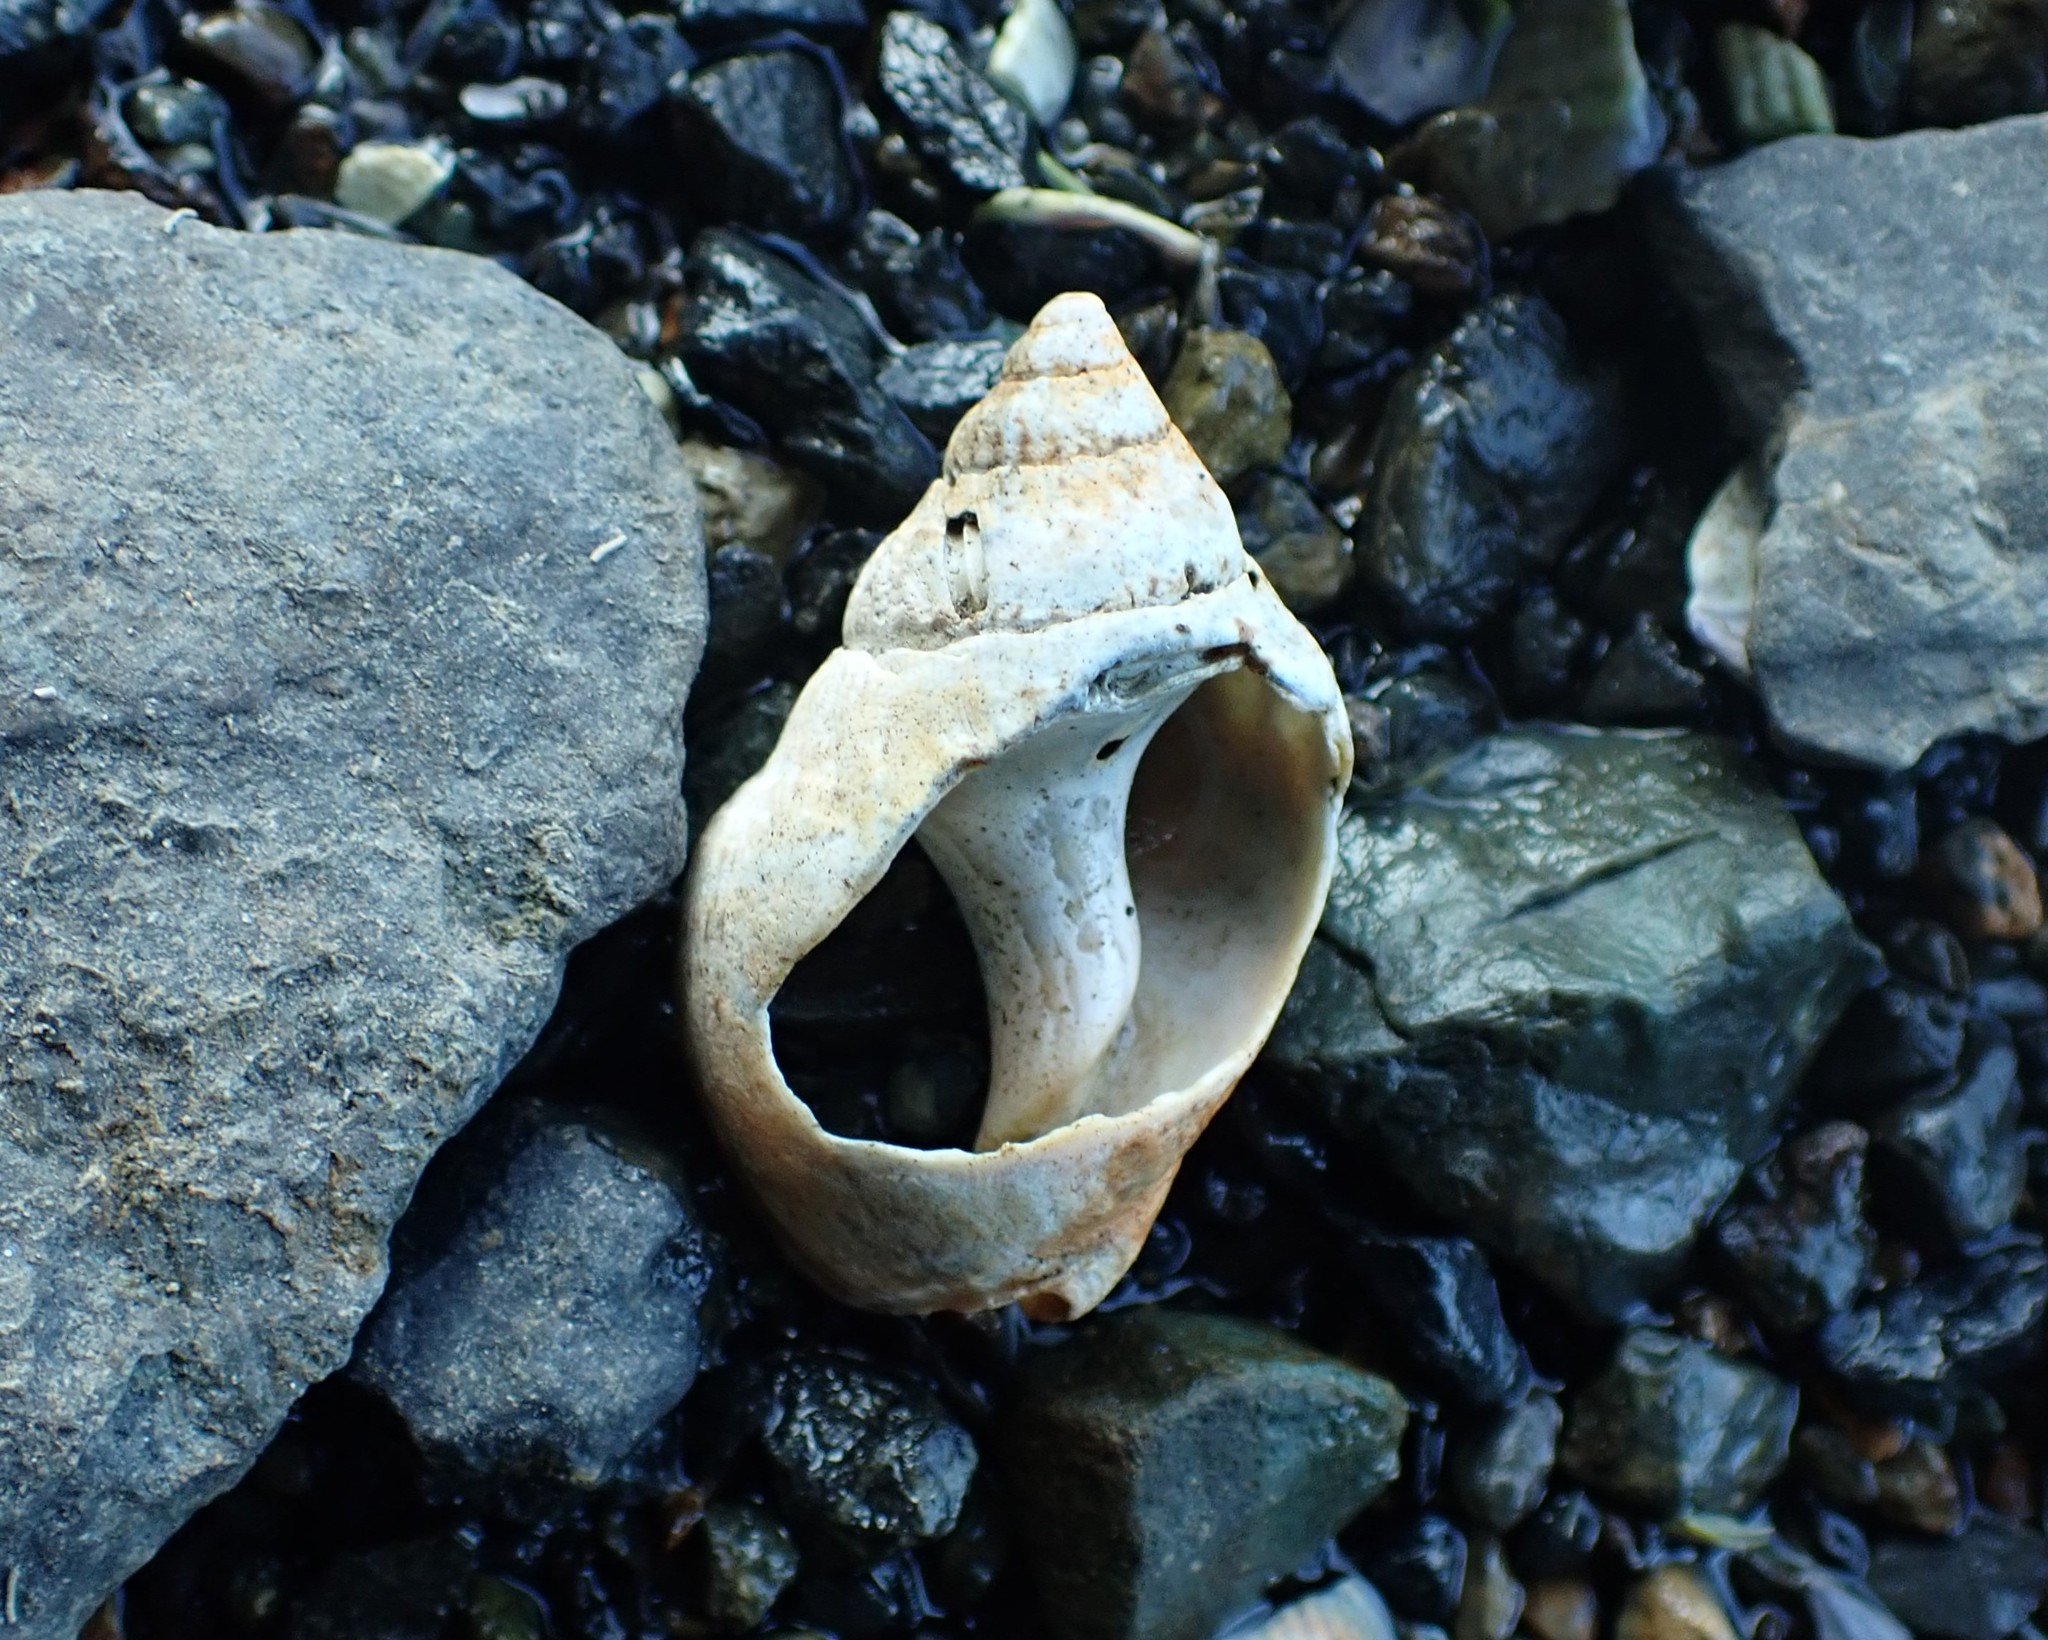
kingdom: Animalia
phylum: Mollusca
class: Gastropoda
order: Neogastropoda
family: Cominellidae
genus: Cominella
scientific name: Cominella adspersa
